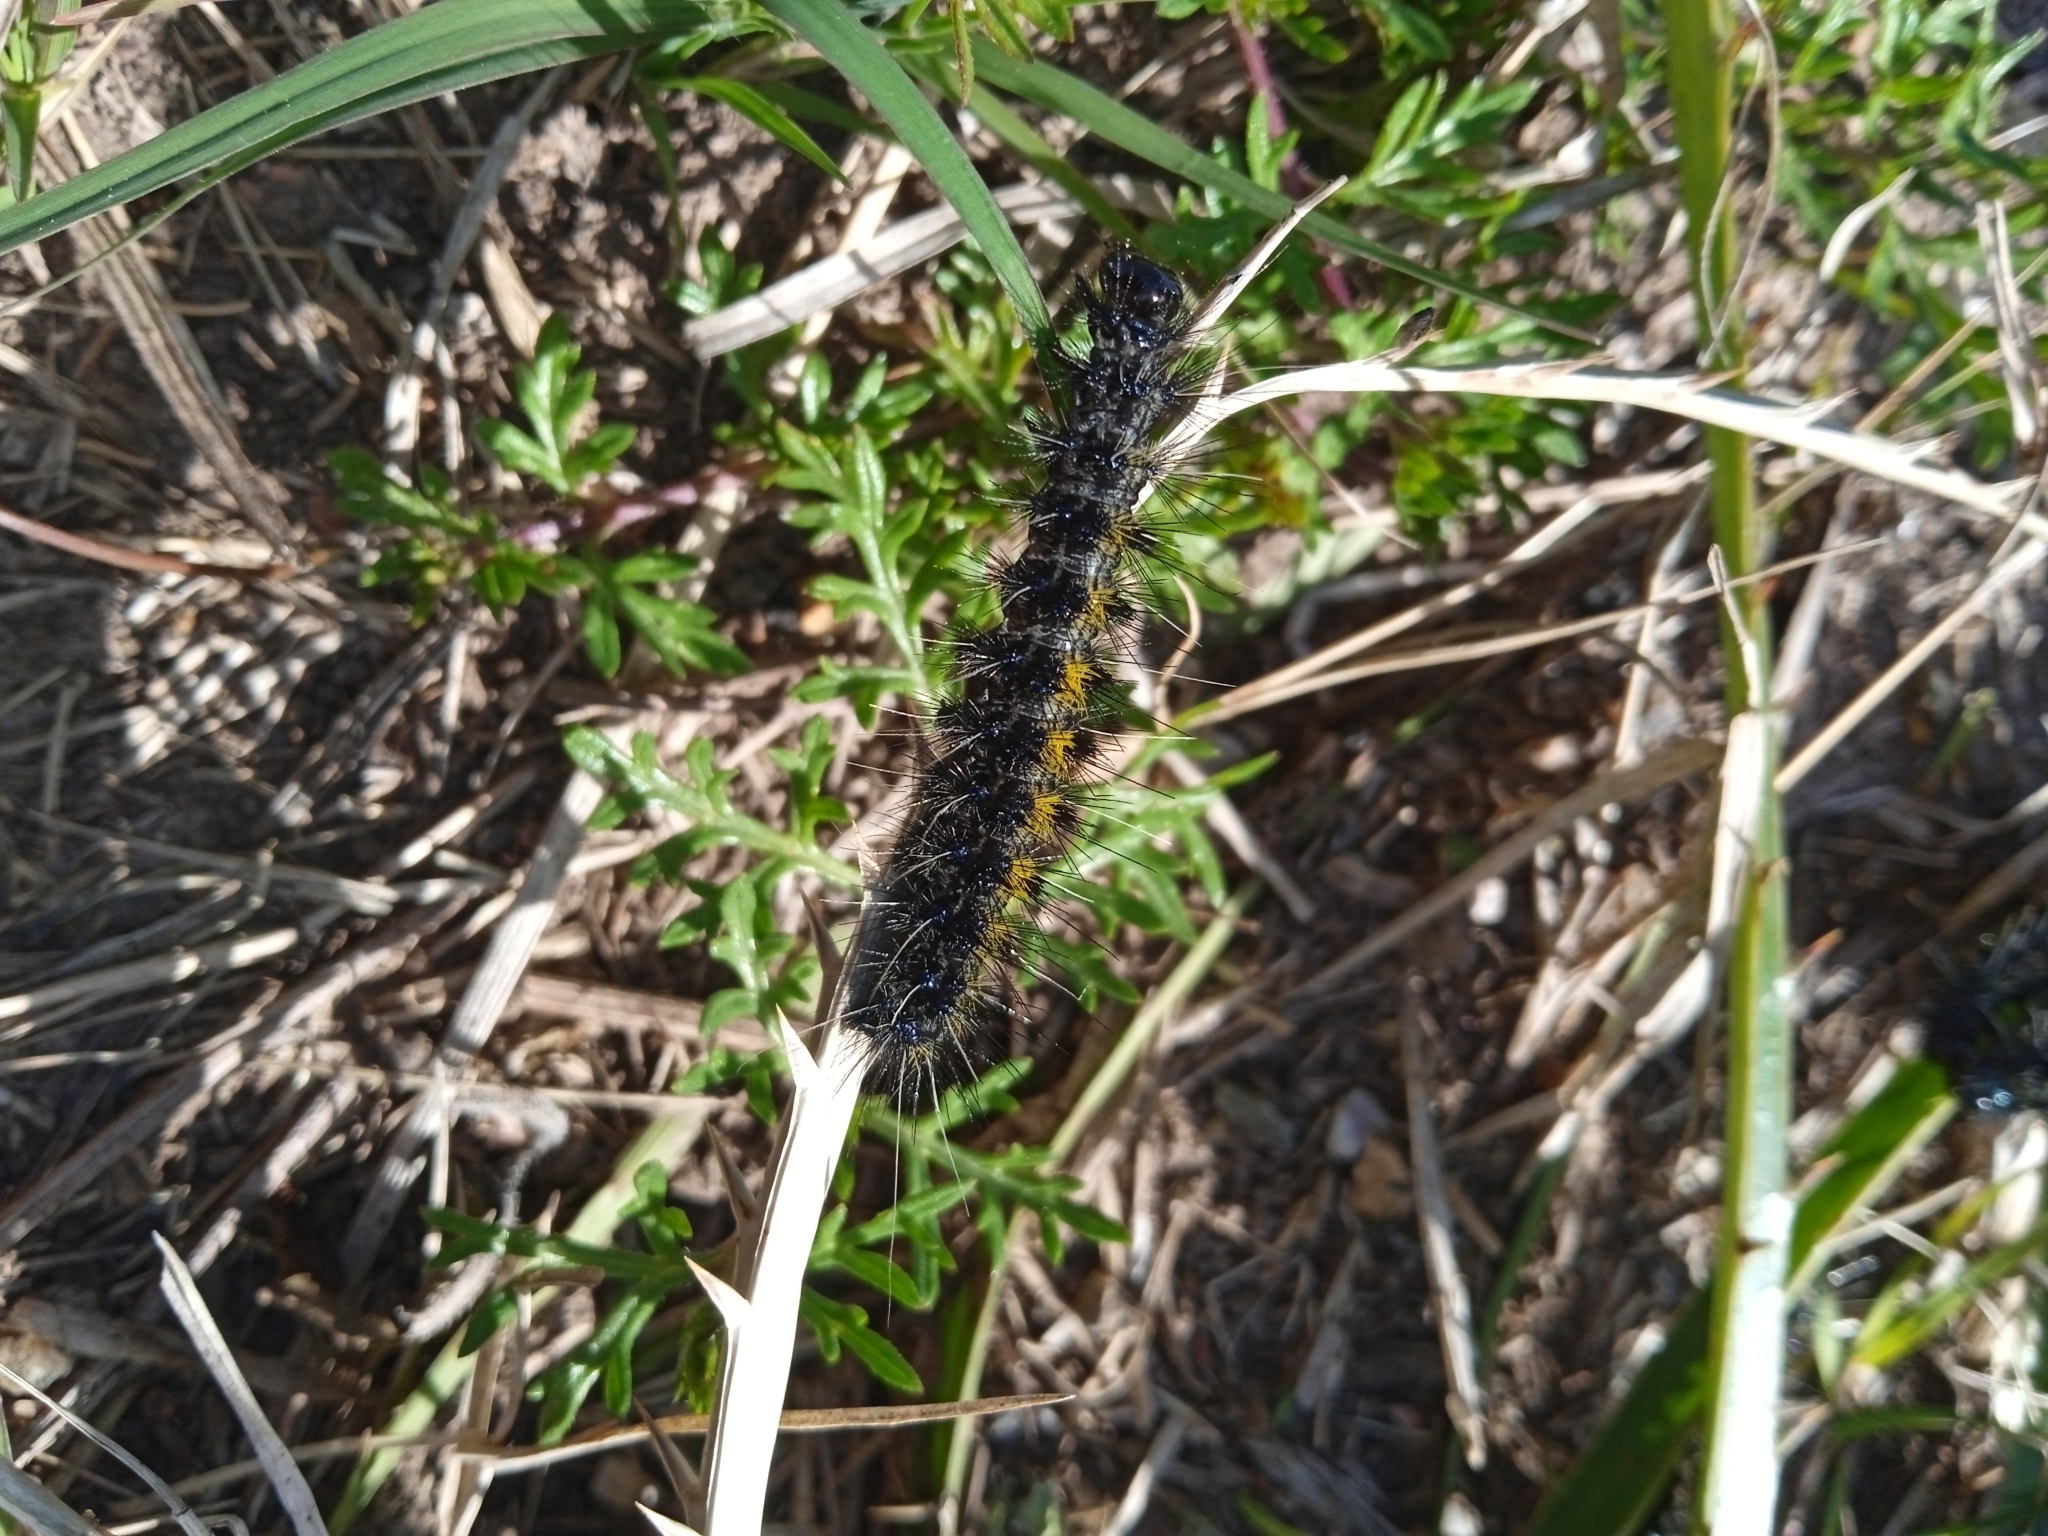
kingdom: Animalia
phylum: Arthropoda
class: Insecta
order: Lepidoptera
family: Erebidae
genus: Dysschema
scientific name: Dysschema centenaria
